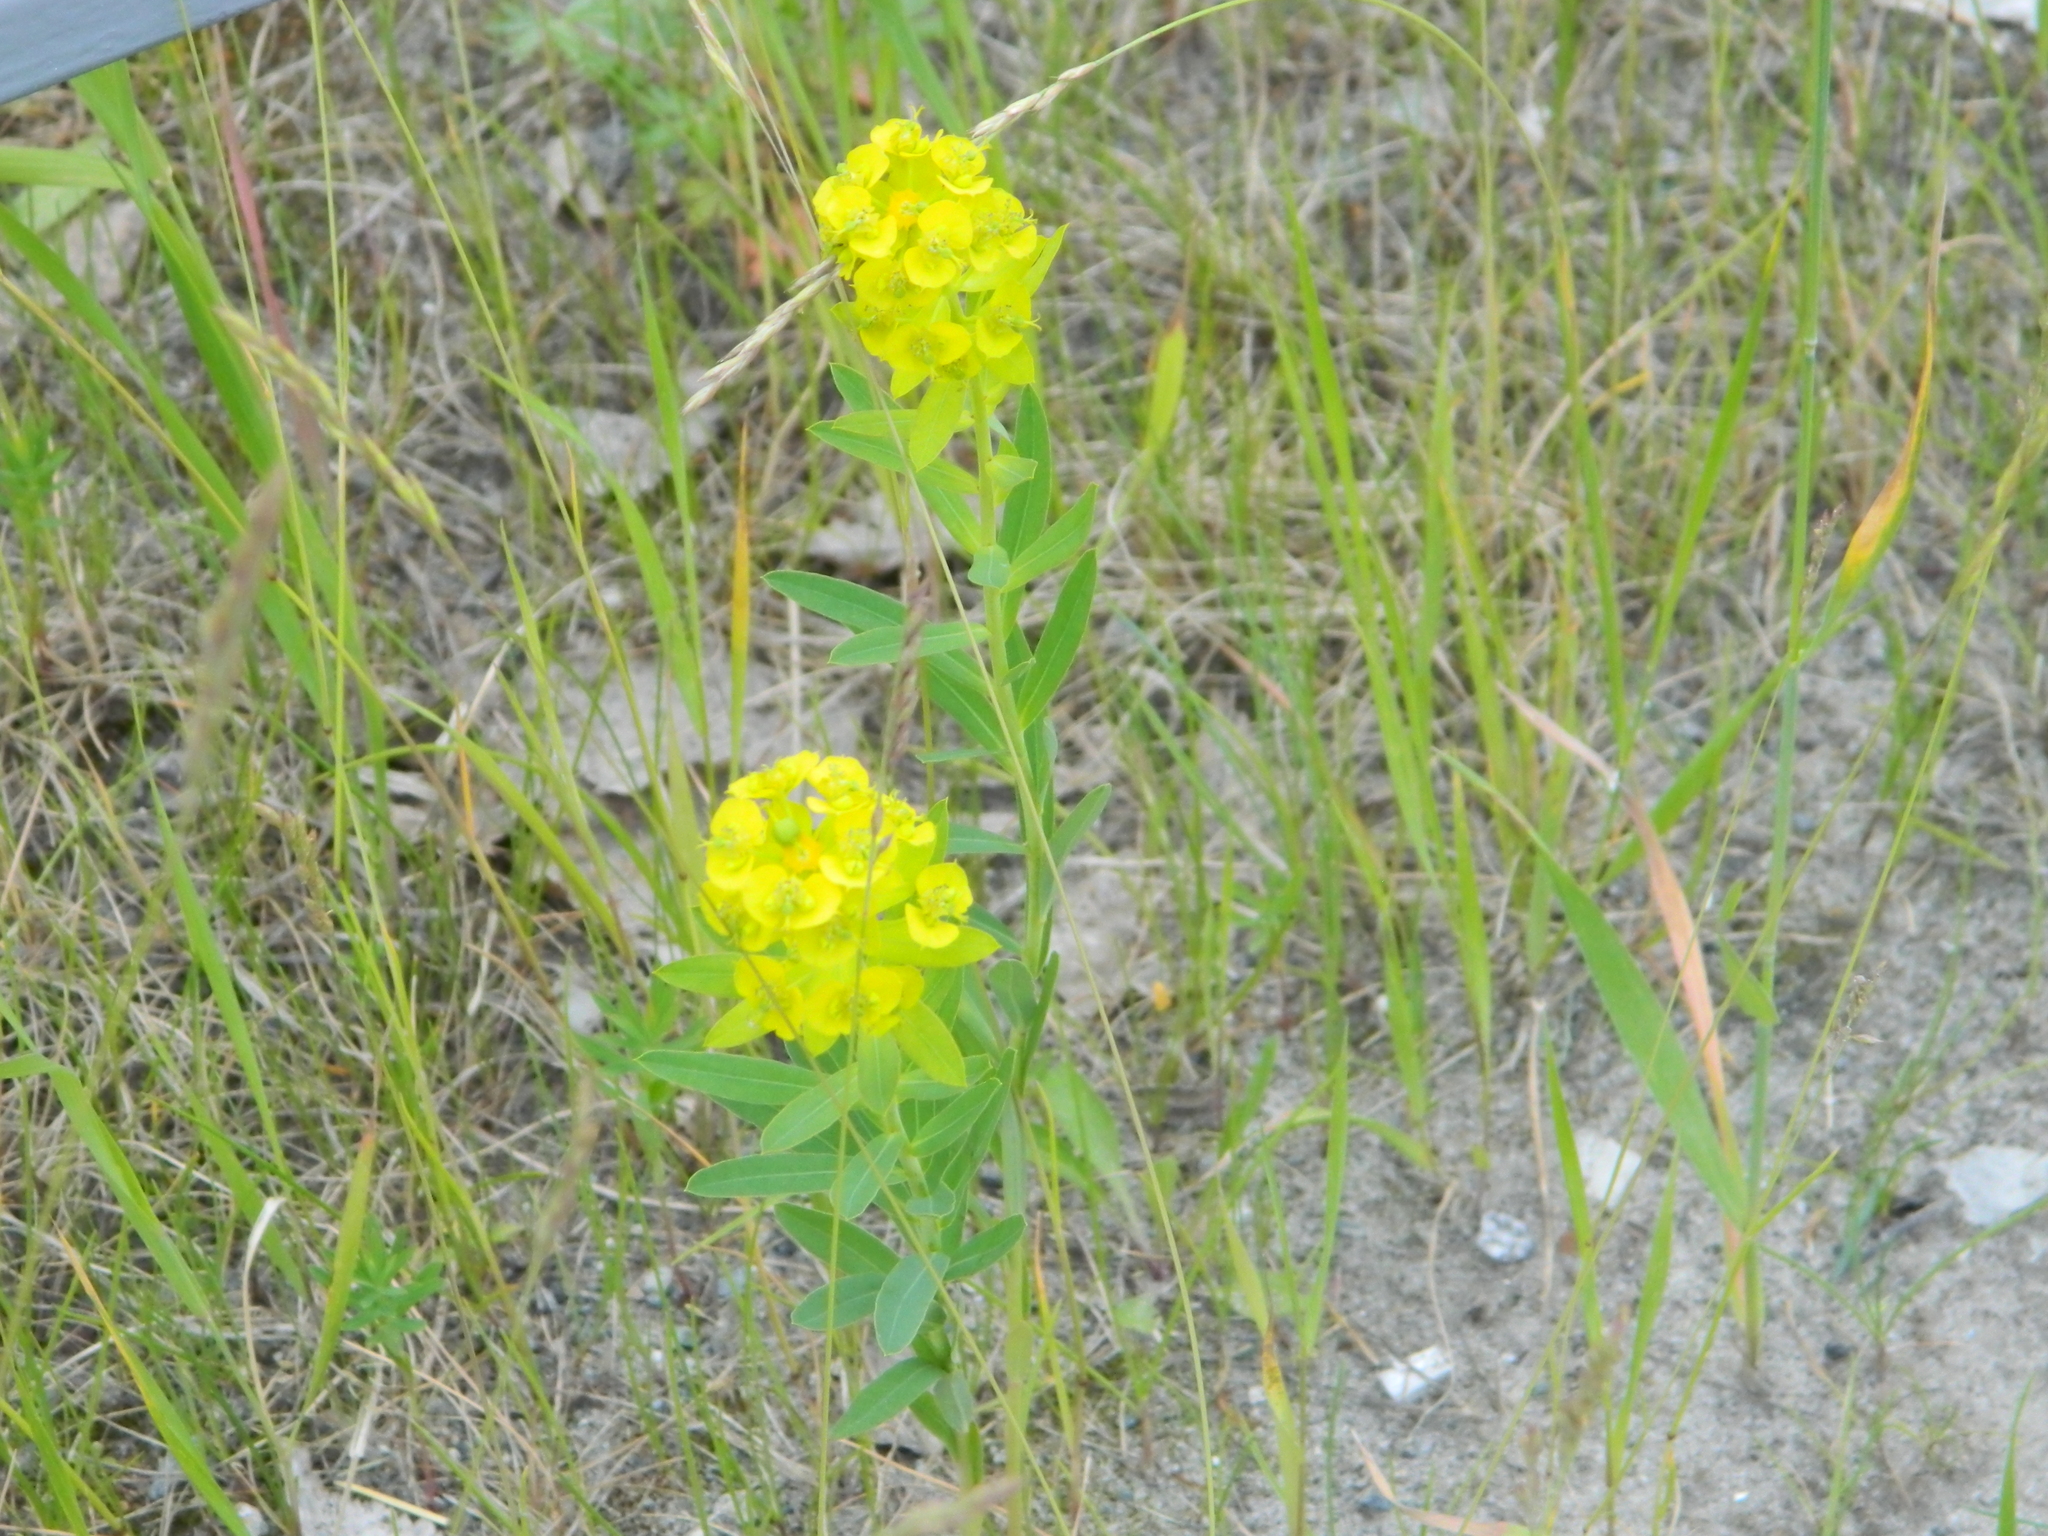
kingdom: Plantae
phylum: Tracheophyta
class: Magnoliopsida
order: Malpighiales
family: Euphorbiaceae
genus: Euphorbia
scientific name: Euphorbia virgata
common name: Leafy spurge
